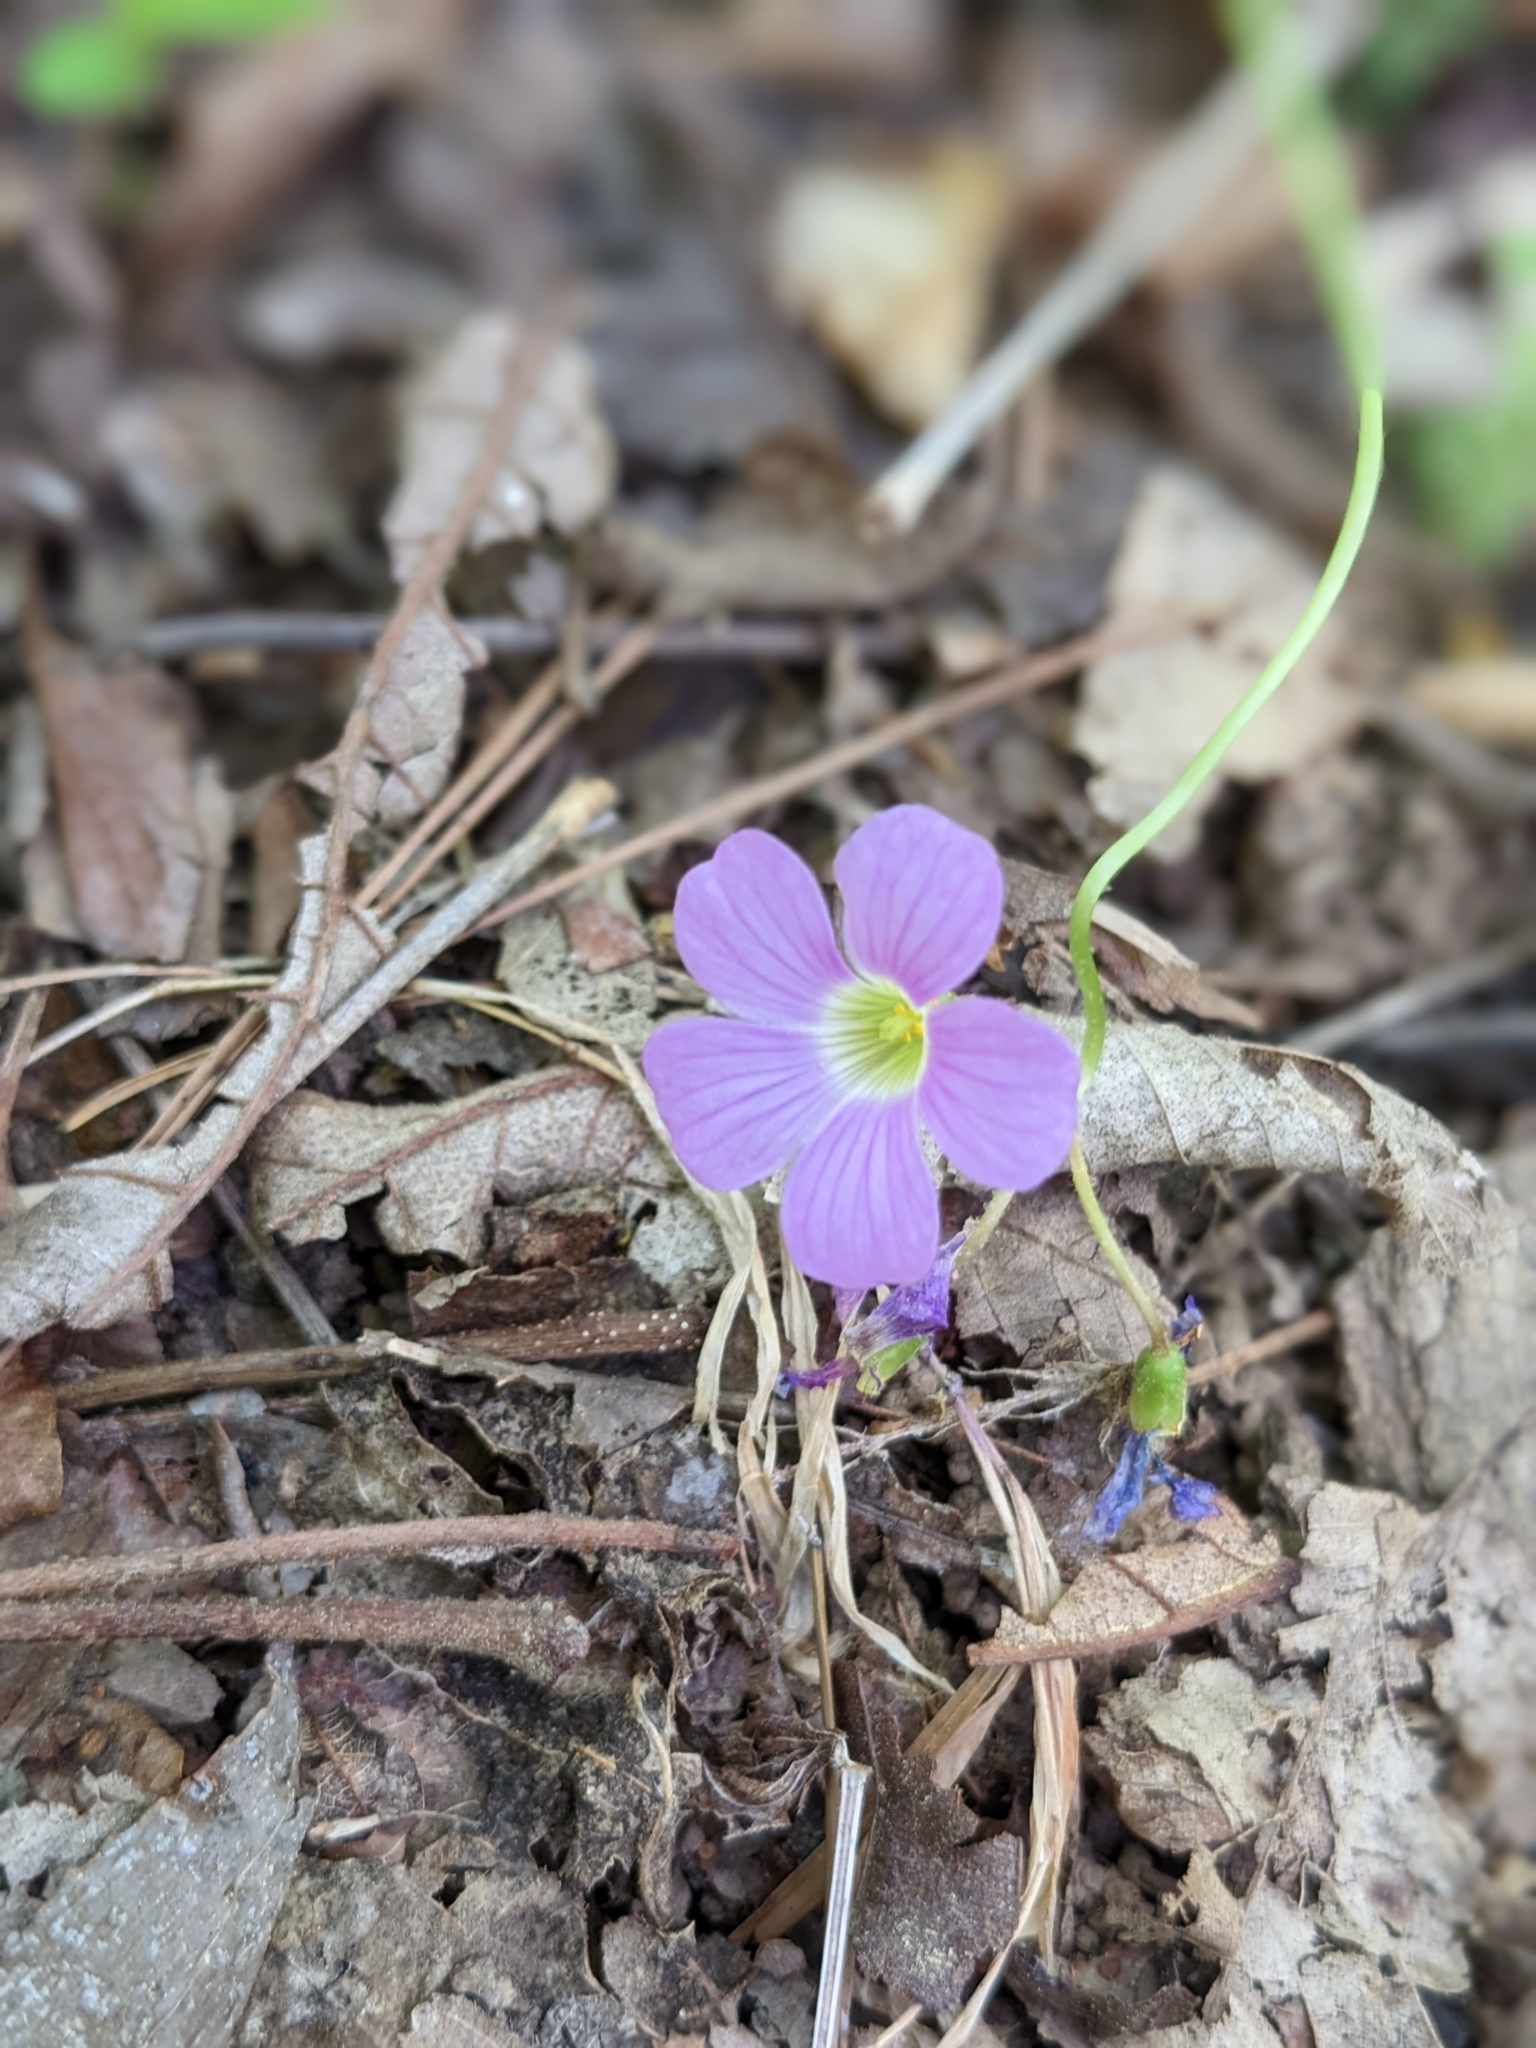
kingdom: Plantae
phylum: Tracheophyta
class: Magnoliopsida
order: Oxalidales
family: Oxalidaceae
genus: Oxalis
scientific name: Oxalis violacea
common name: Violet wood-sorrel
